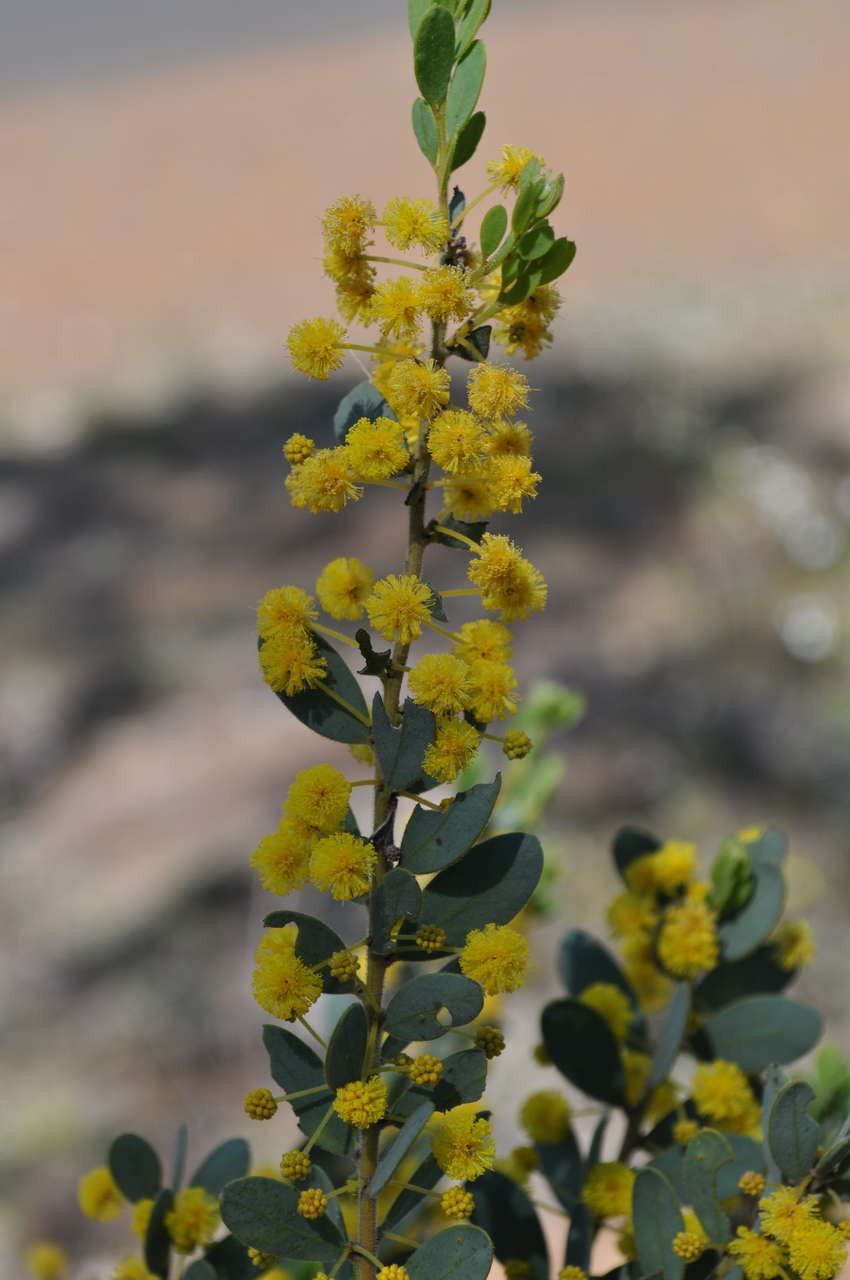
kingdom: Plantae
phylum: Tracheophyta
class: Magnoliopsida
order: Fabales
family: Fabaceae
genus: Acacia
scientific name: Acacia brachybotrya
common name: Grey mulga
